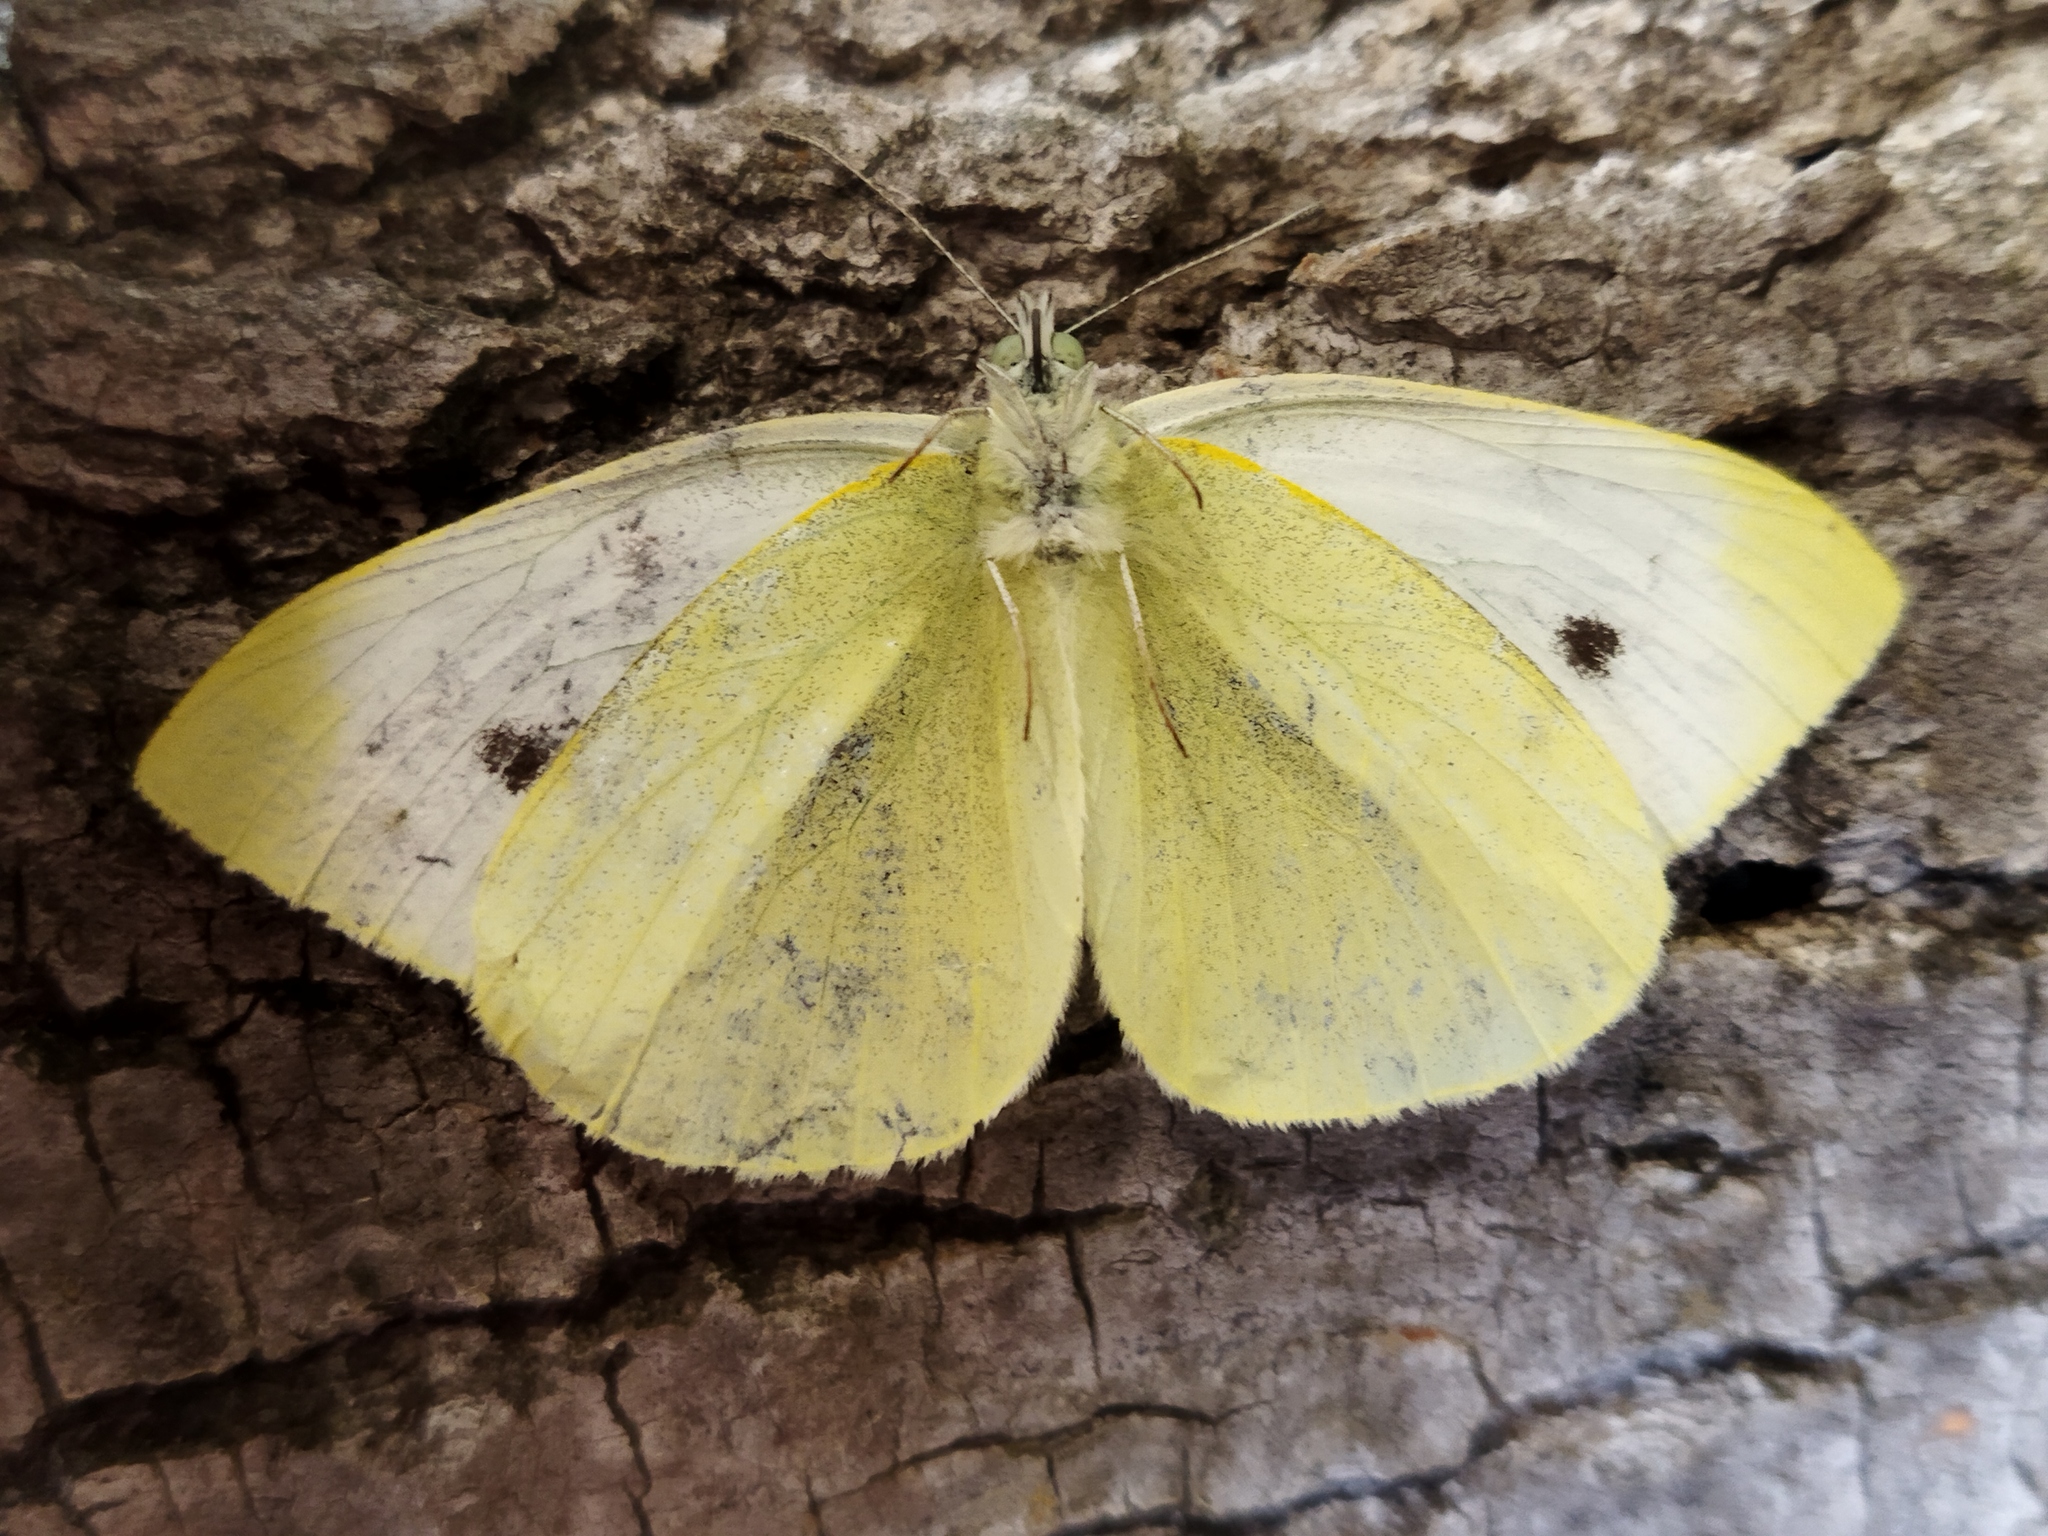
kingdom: Animalia
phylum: Arthropoda
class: Insecta
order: Lepidoptera
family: Pieridae
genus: Pieris
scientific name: Pieris rapae
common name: Small white
